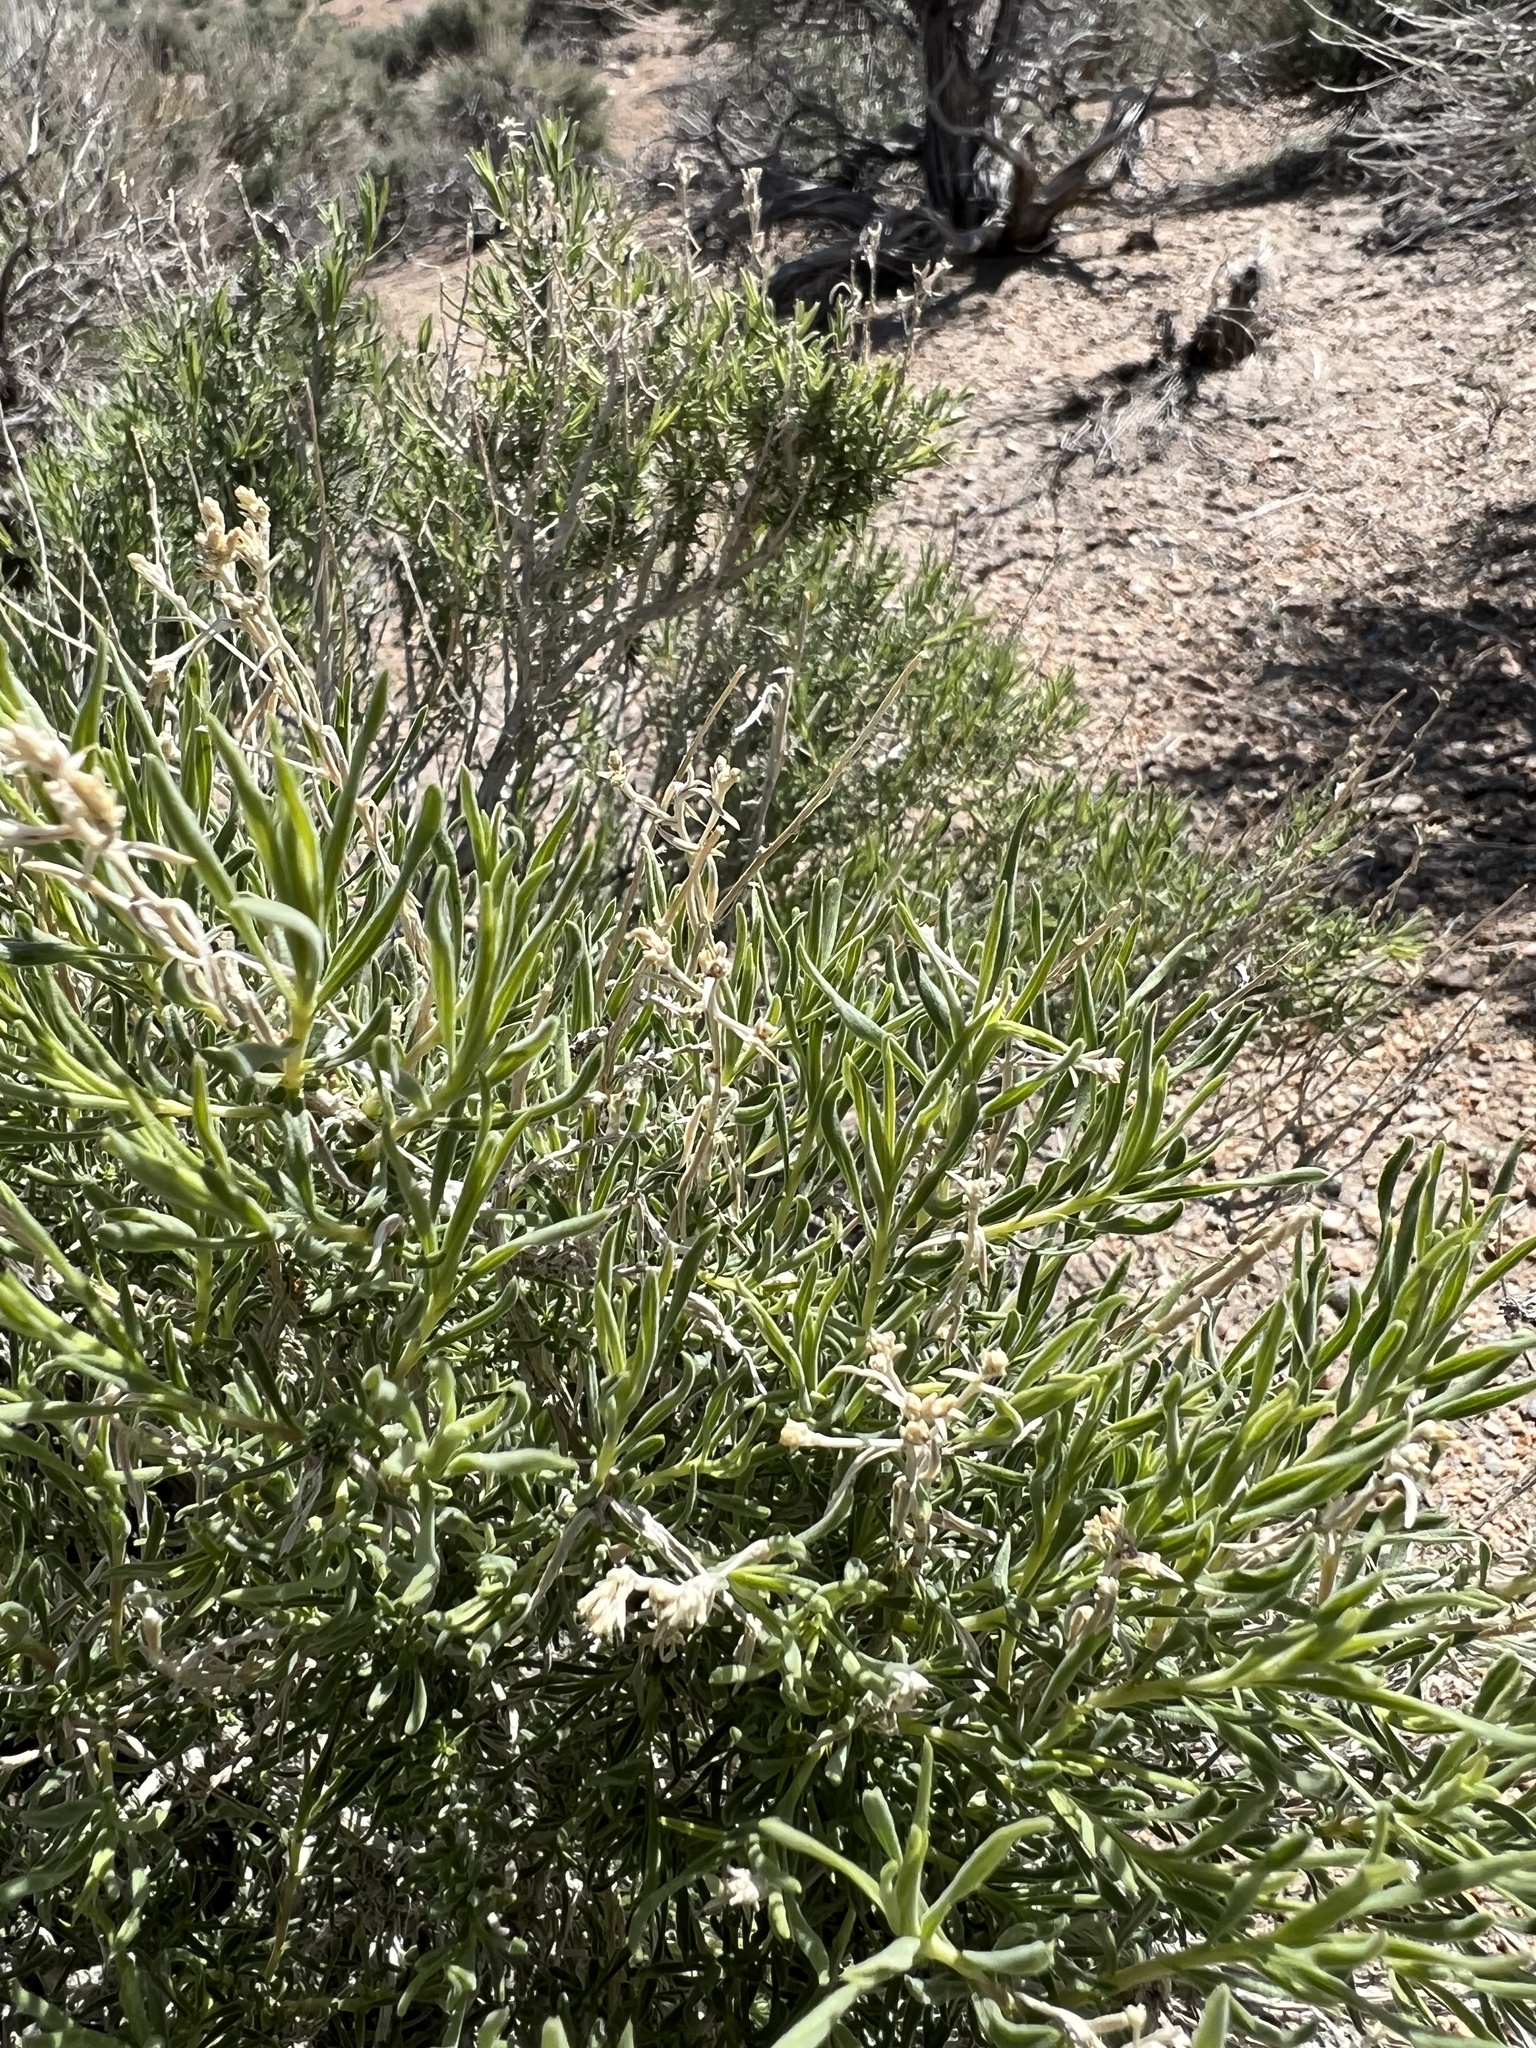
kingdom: Plantae
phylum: Tracheophyta
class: Magnoliopsida
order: Asterales
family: Asteraceae
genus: Chrysothamnus
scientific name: Chrysothamnus viscidiflorus
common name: Yellow rabbitbrush
